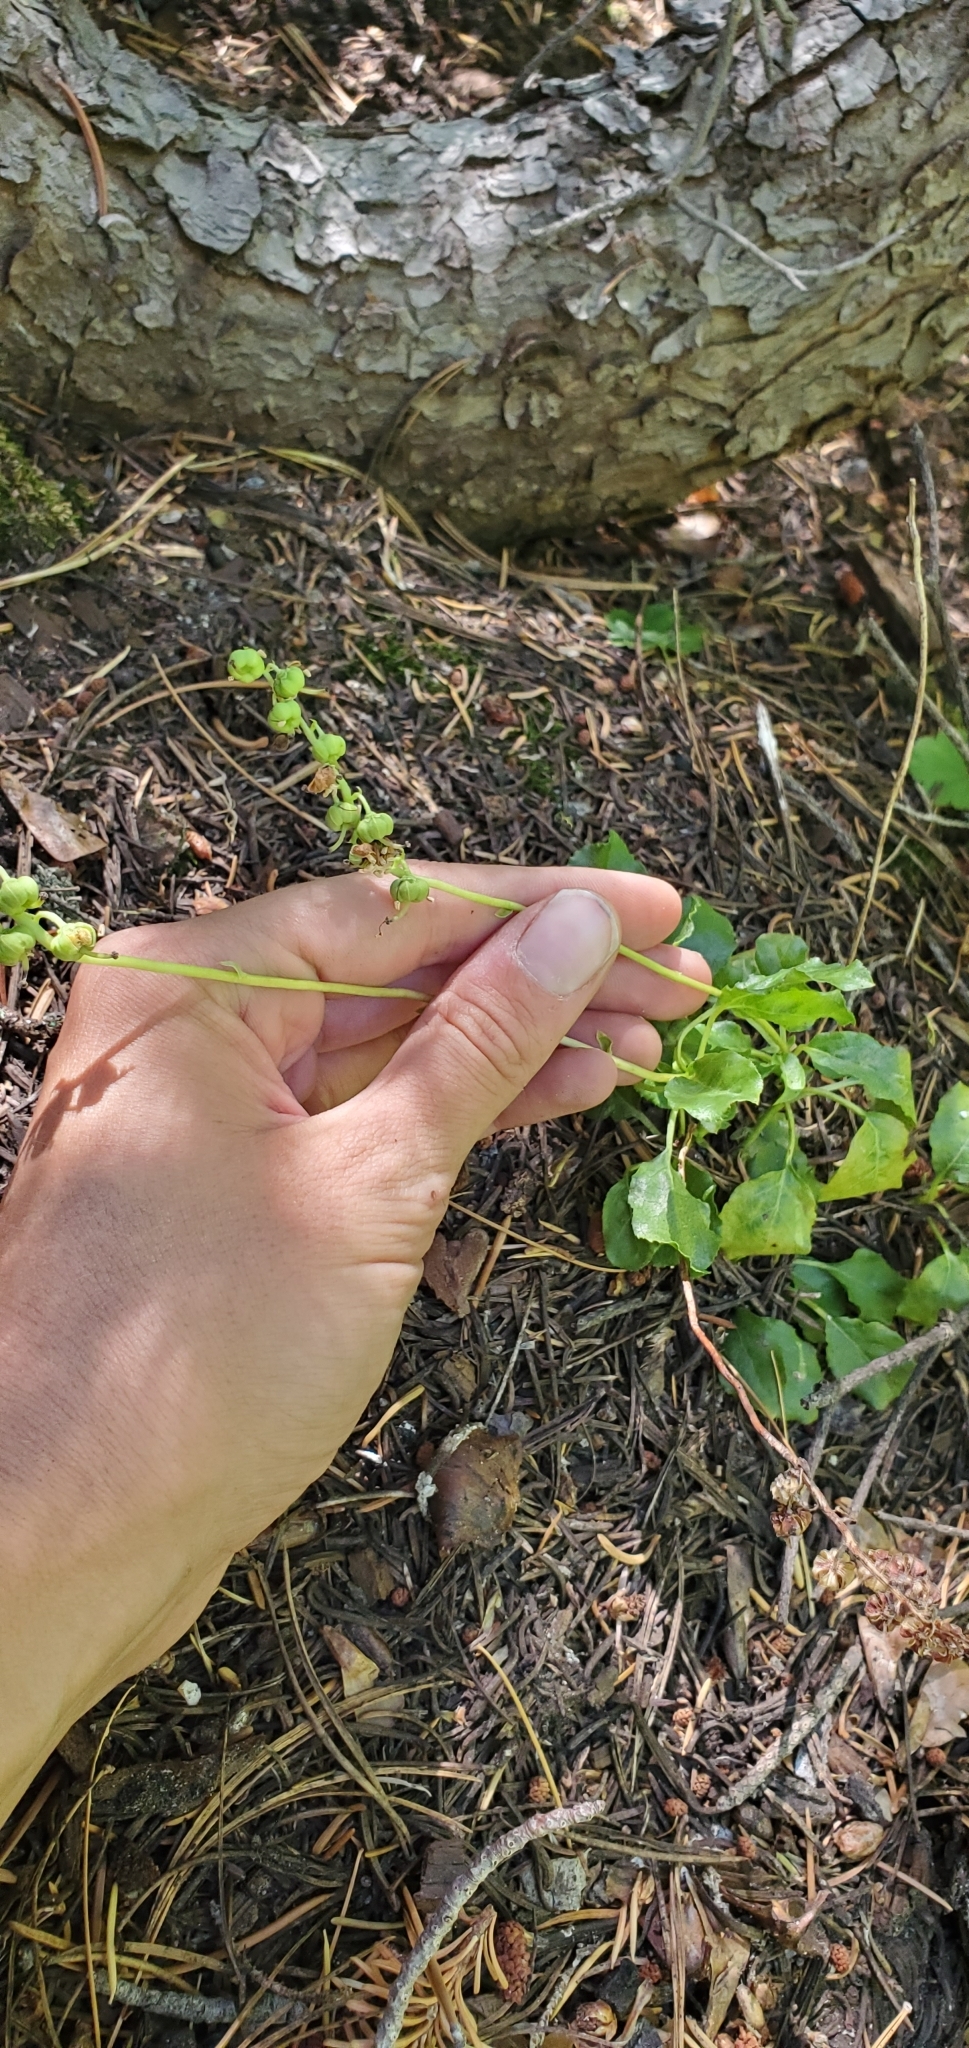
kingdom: Plantae
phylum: Tracheophyta
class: Magnoliopsida
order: Ericales
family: Ericaceae
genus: Orthilia
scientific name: Orthilia secunda
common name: One-sided orthilia
